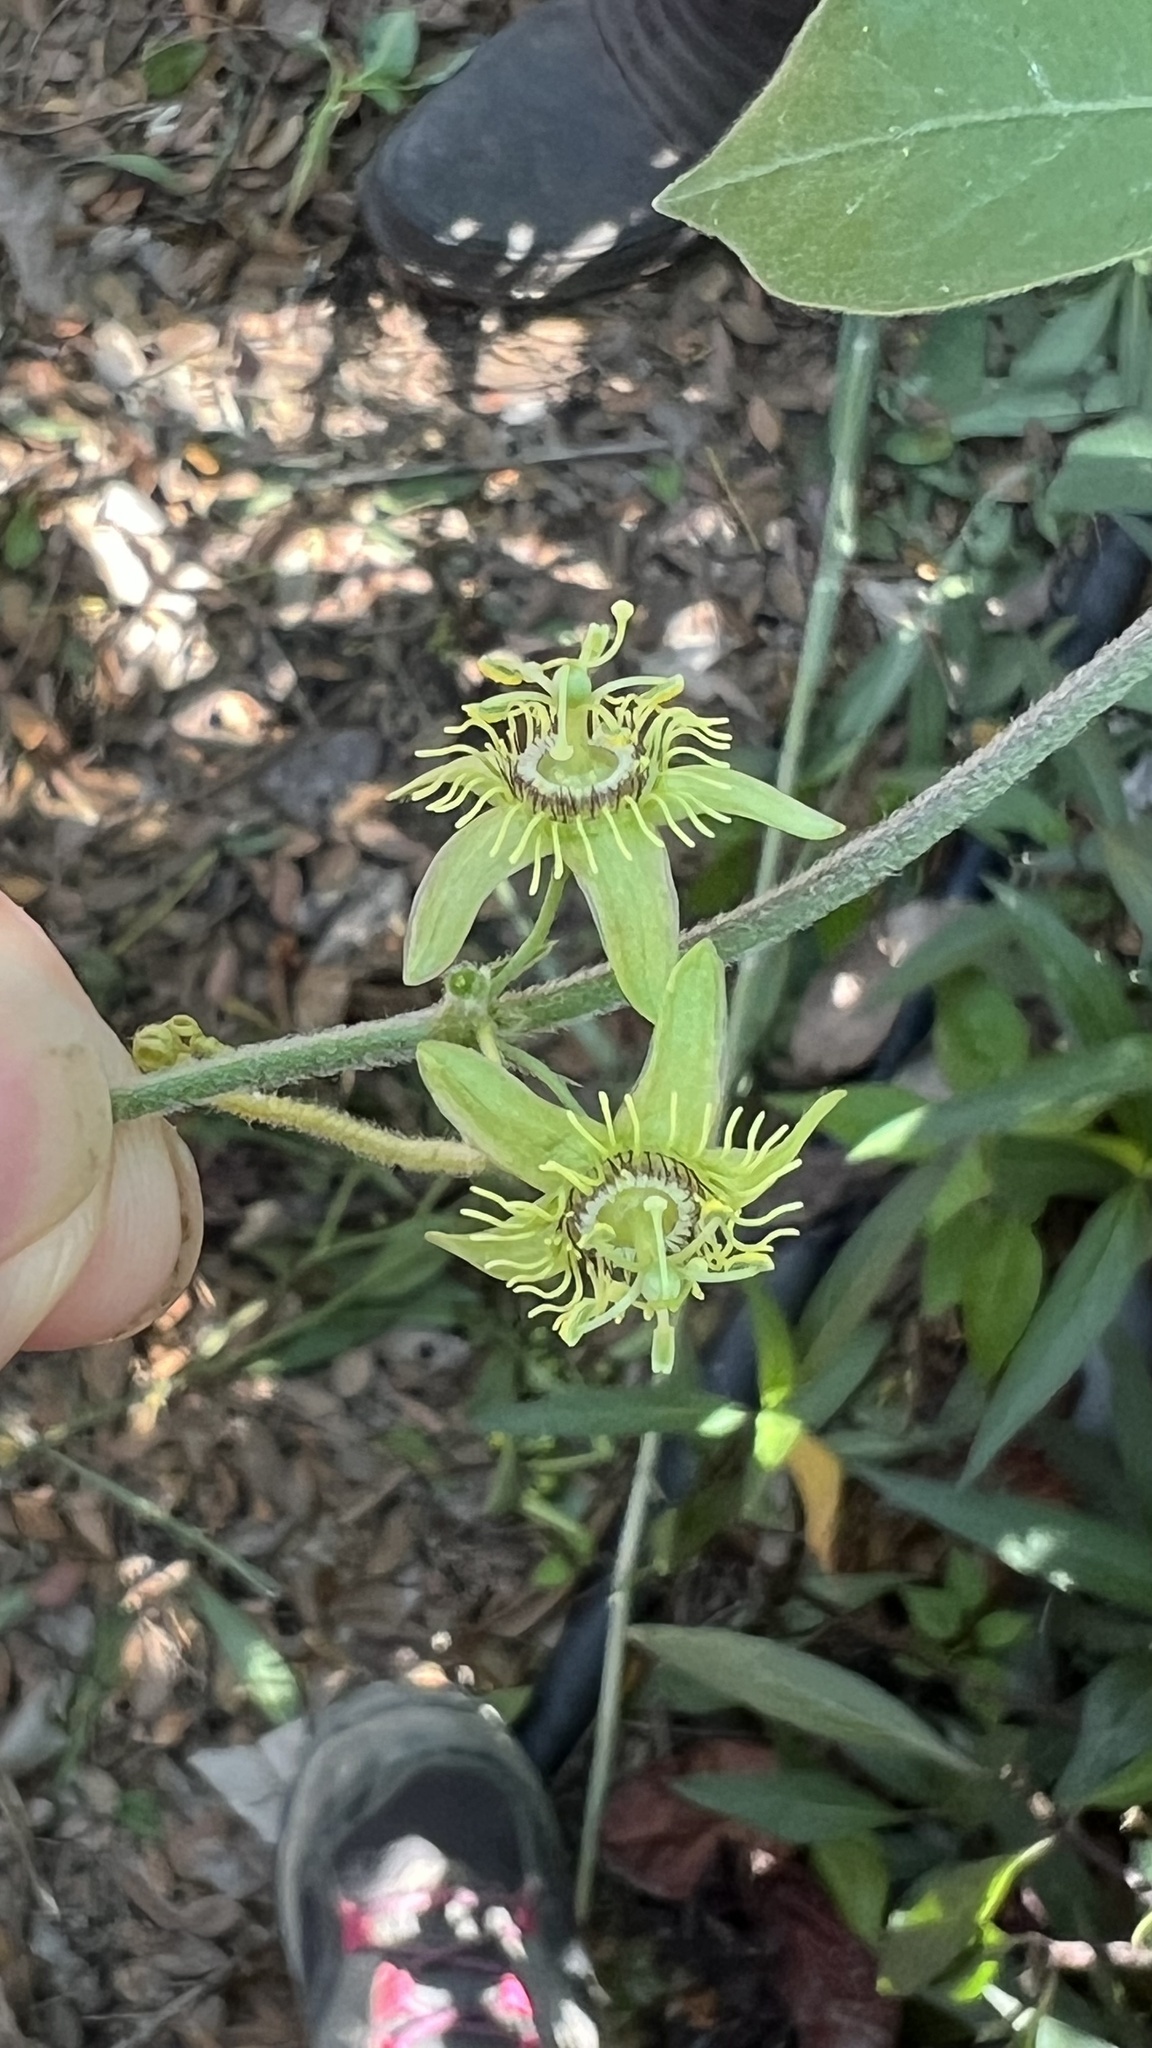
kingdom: Plantae
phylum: Tracheophyta
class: Magnoliopsida
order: Malpighiales
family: Passifloraceae
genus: Passiflora
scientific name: Passiflora suberosa
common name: Wild passionfruit
